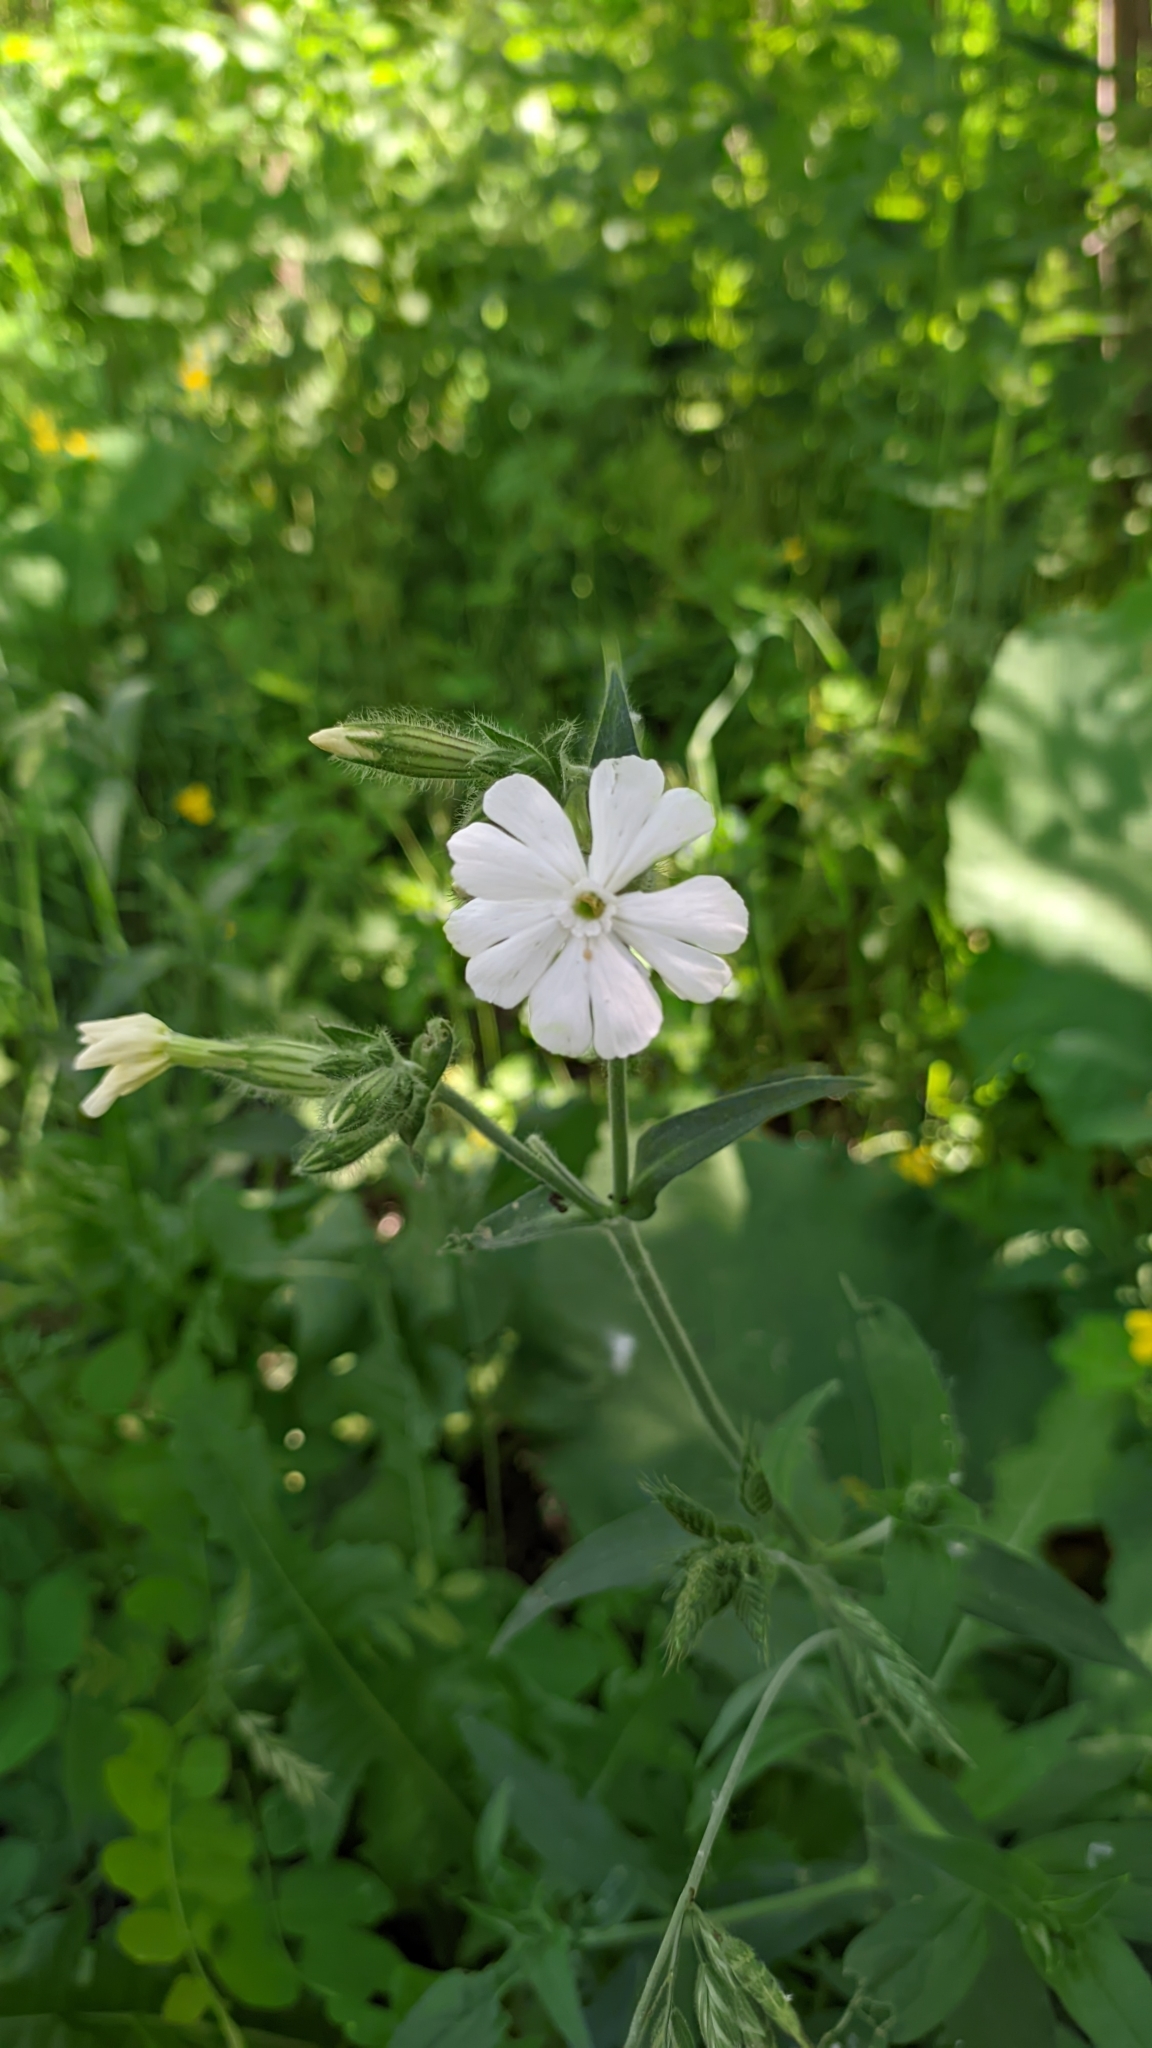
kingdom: Plantae
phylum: Tracheophyta
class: Magnoliopsida
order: Caryophyllales
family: Caryophyllaceae
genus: Silene
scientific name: Silene latifolia
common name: White campion
